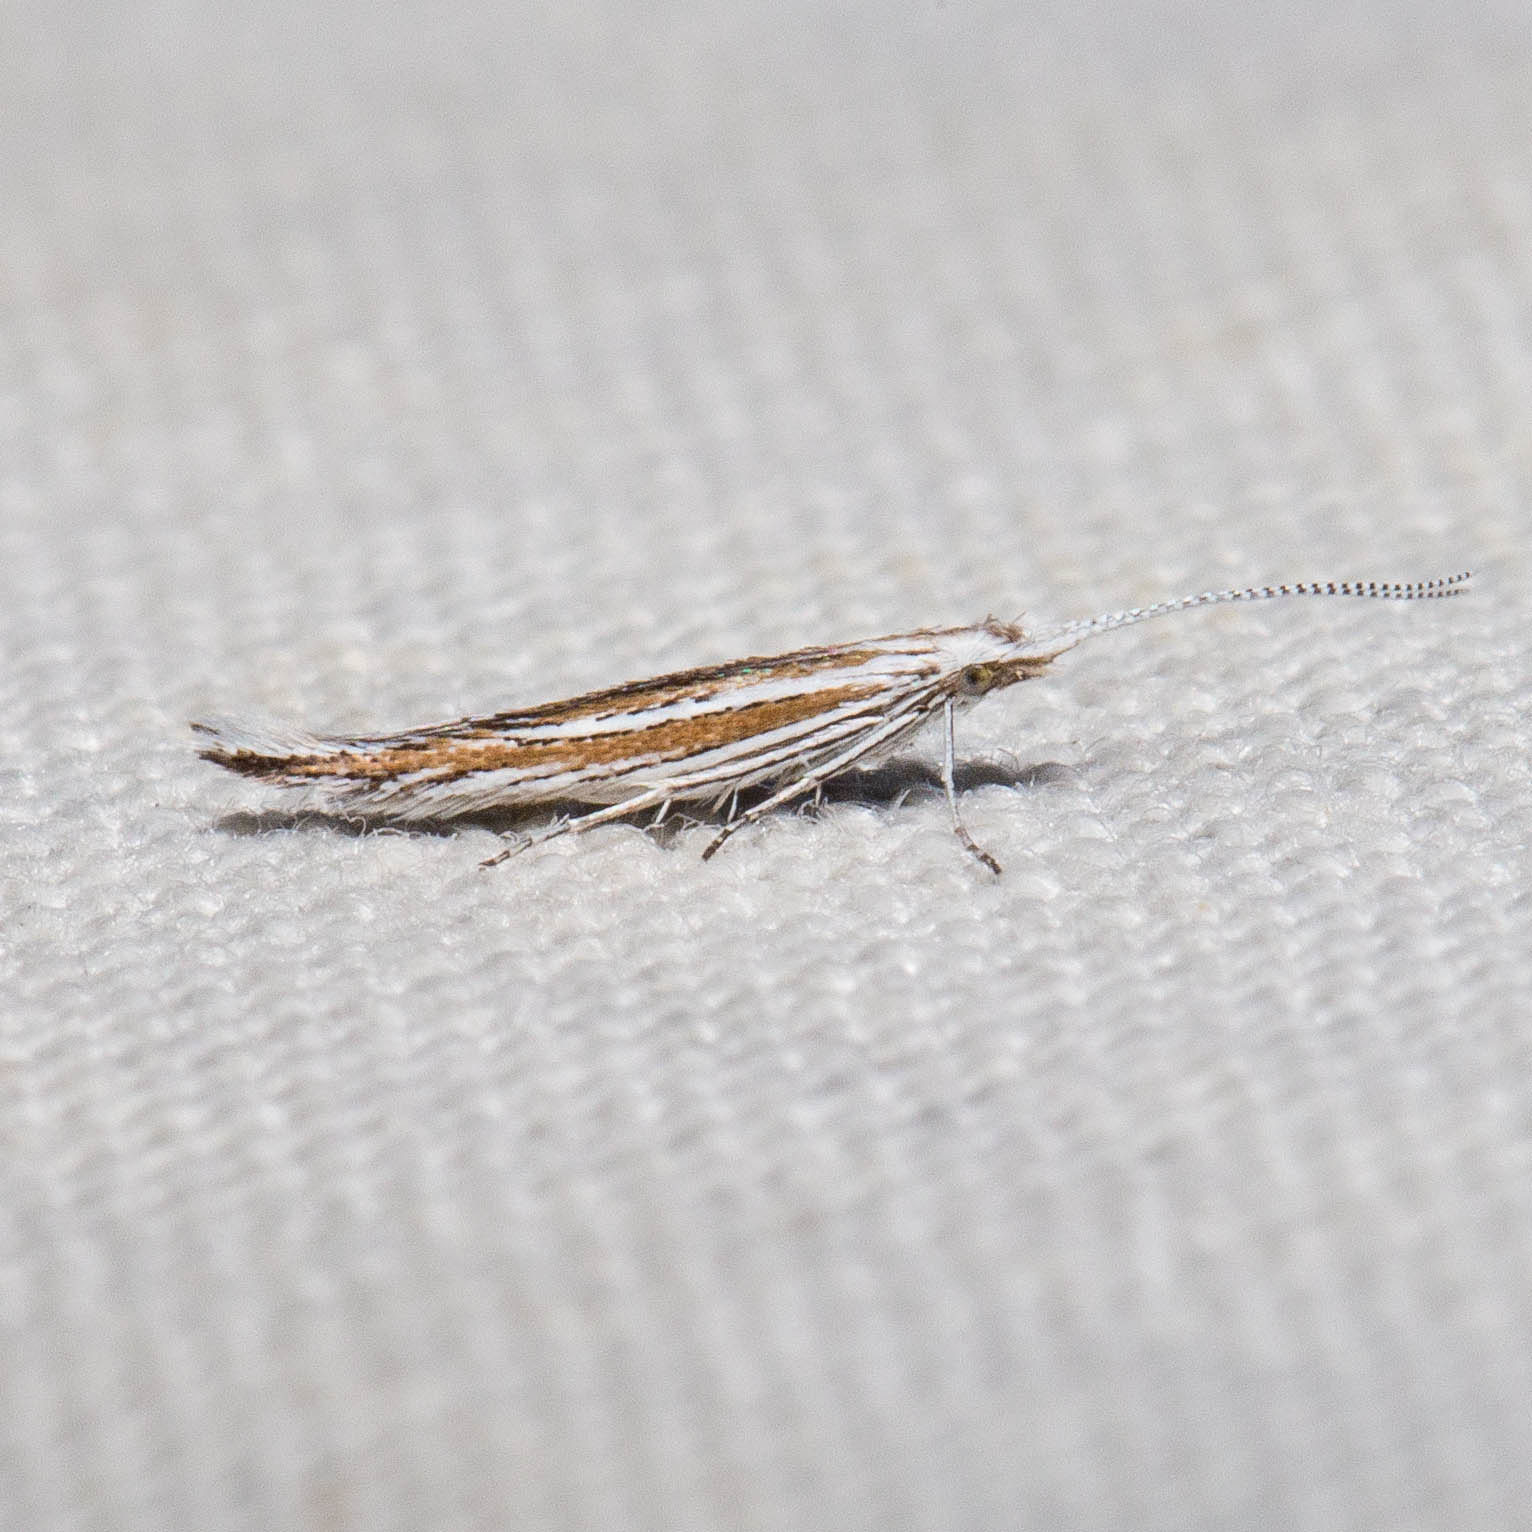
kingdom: Animalia
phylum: Arthropoda
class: Insecta
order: Lepidoptera
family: Coleophoridae
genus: Coleophora
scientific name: Coleophora nigrostriata
